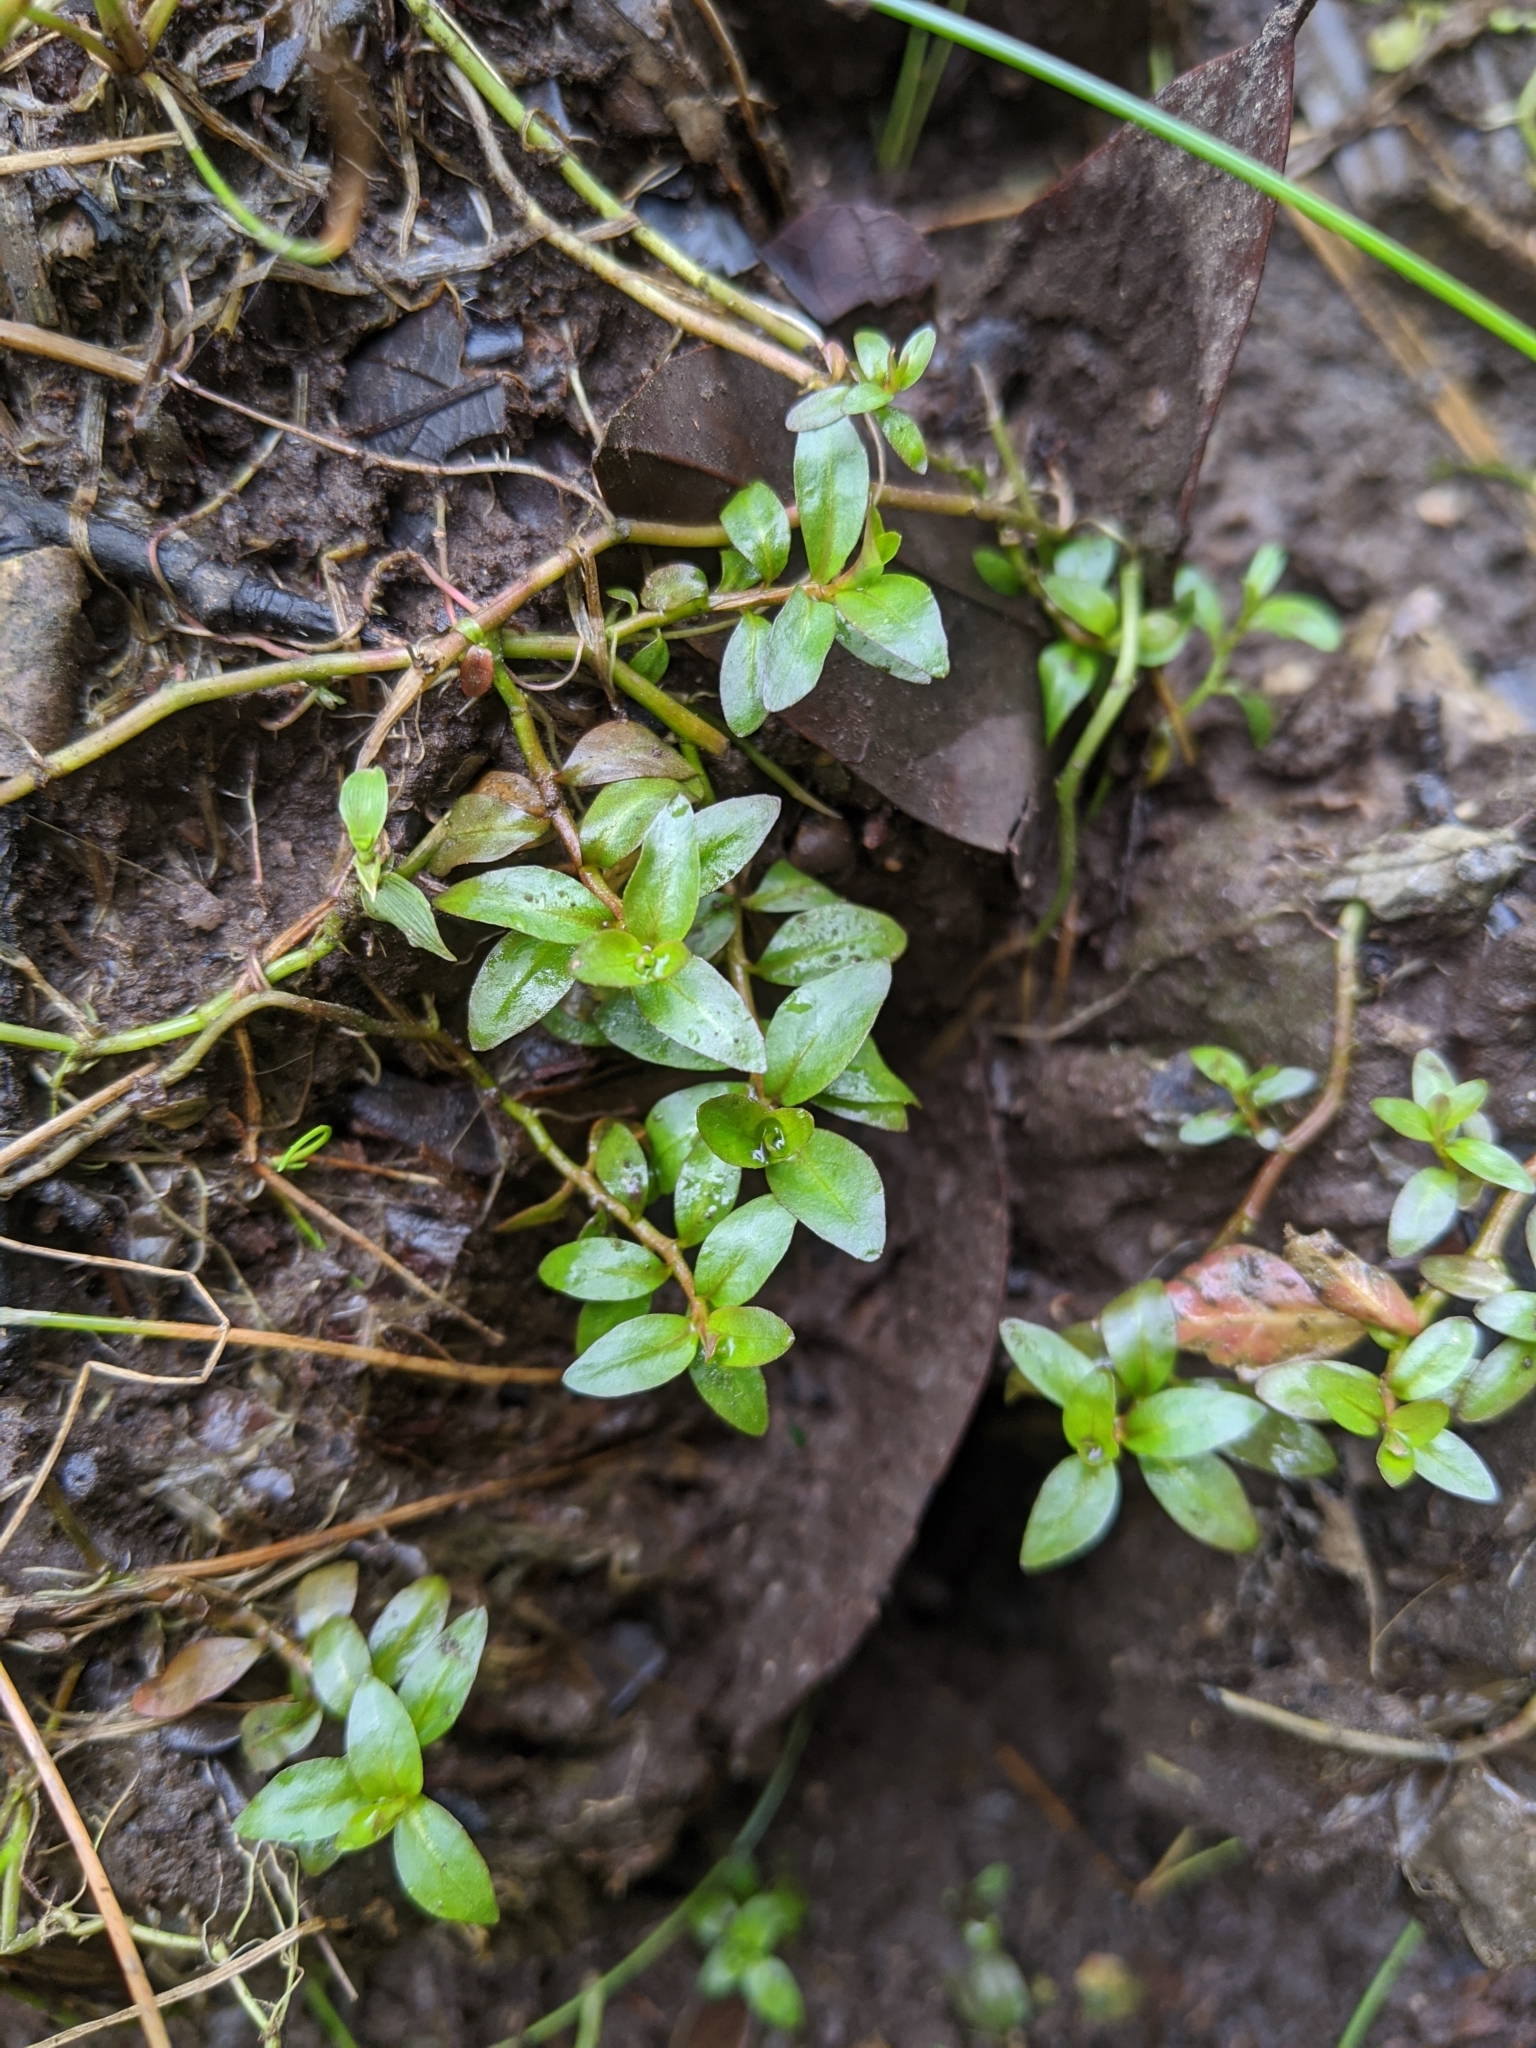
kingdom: Plantae
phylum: Tracheophyta
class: Magnoliopsida
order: Myrtales
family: Onagraceae
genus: Ludwigia
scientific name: Ludwigia ovalis
